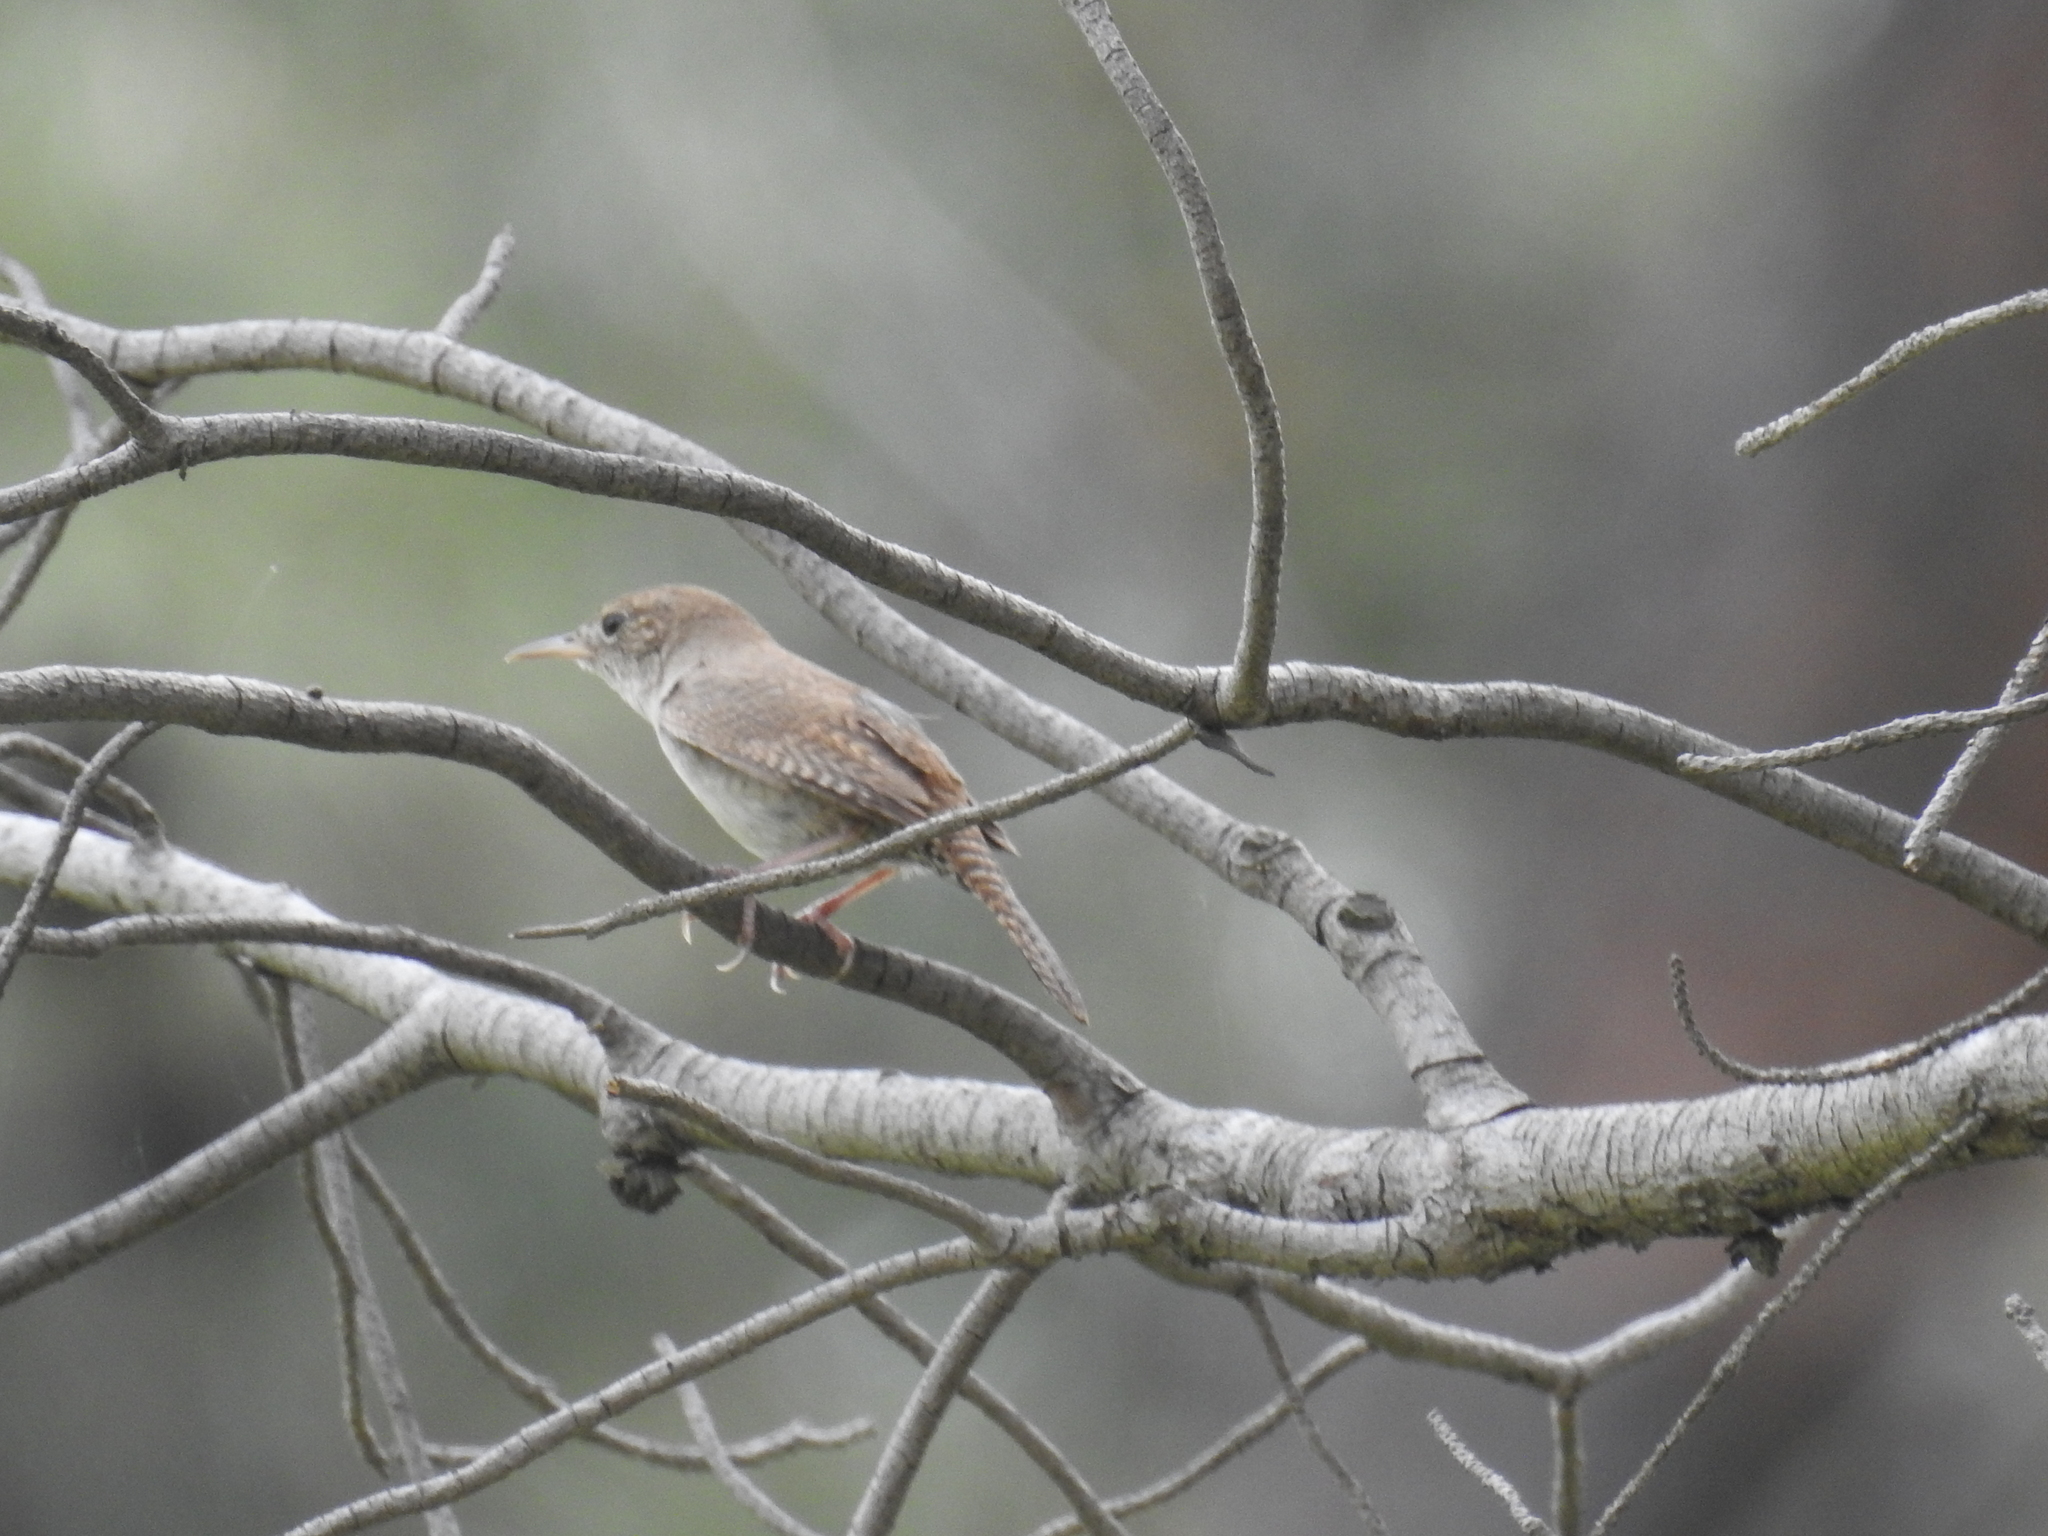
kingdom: Animalia
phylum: Chordata
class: Aves
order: Passeriformes
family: Troglodytidae
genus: Troglodytes
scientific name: Troglodytes aedon
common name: House wren
